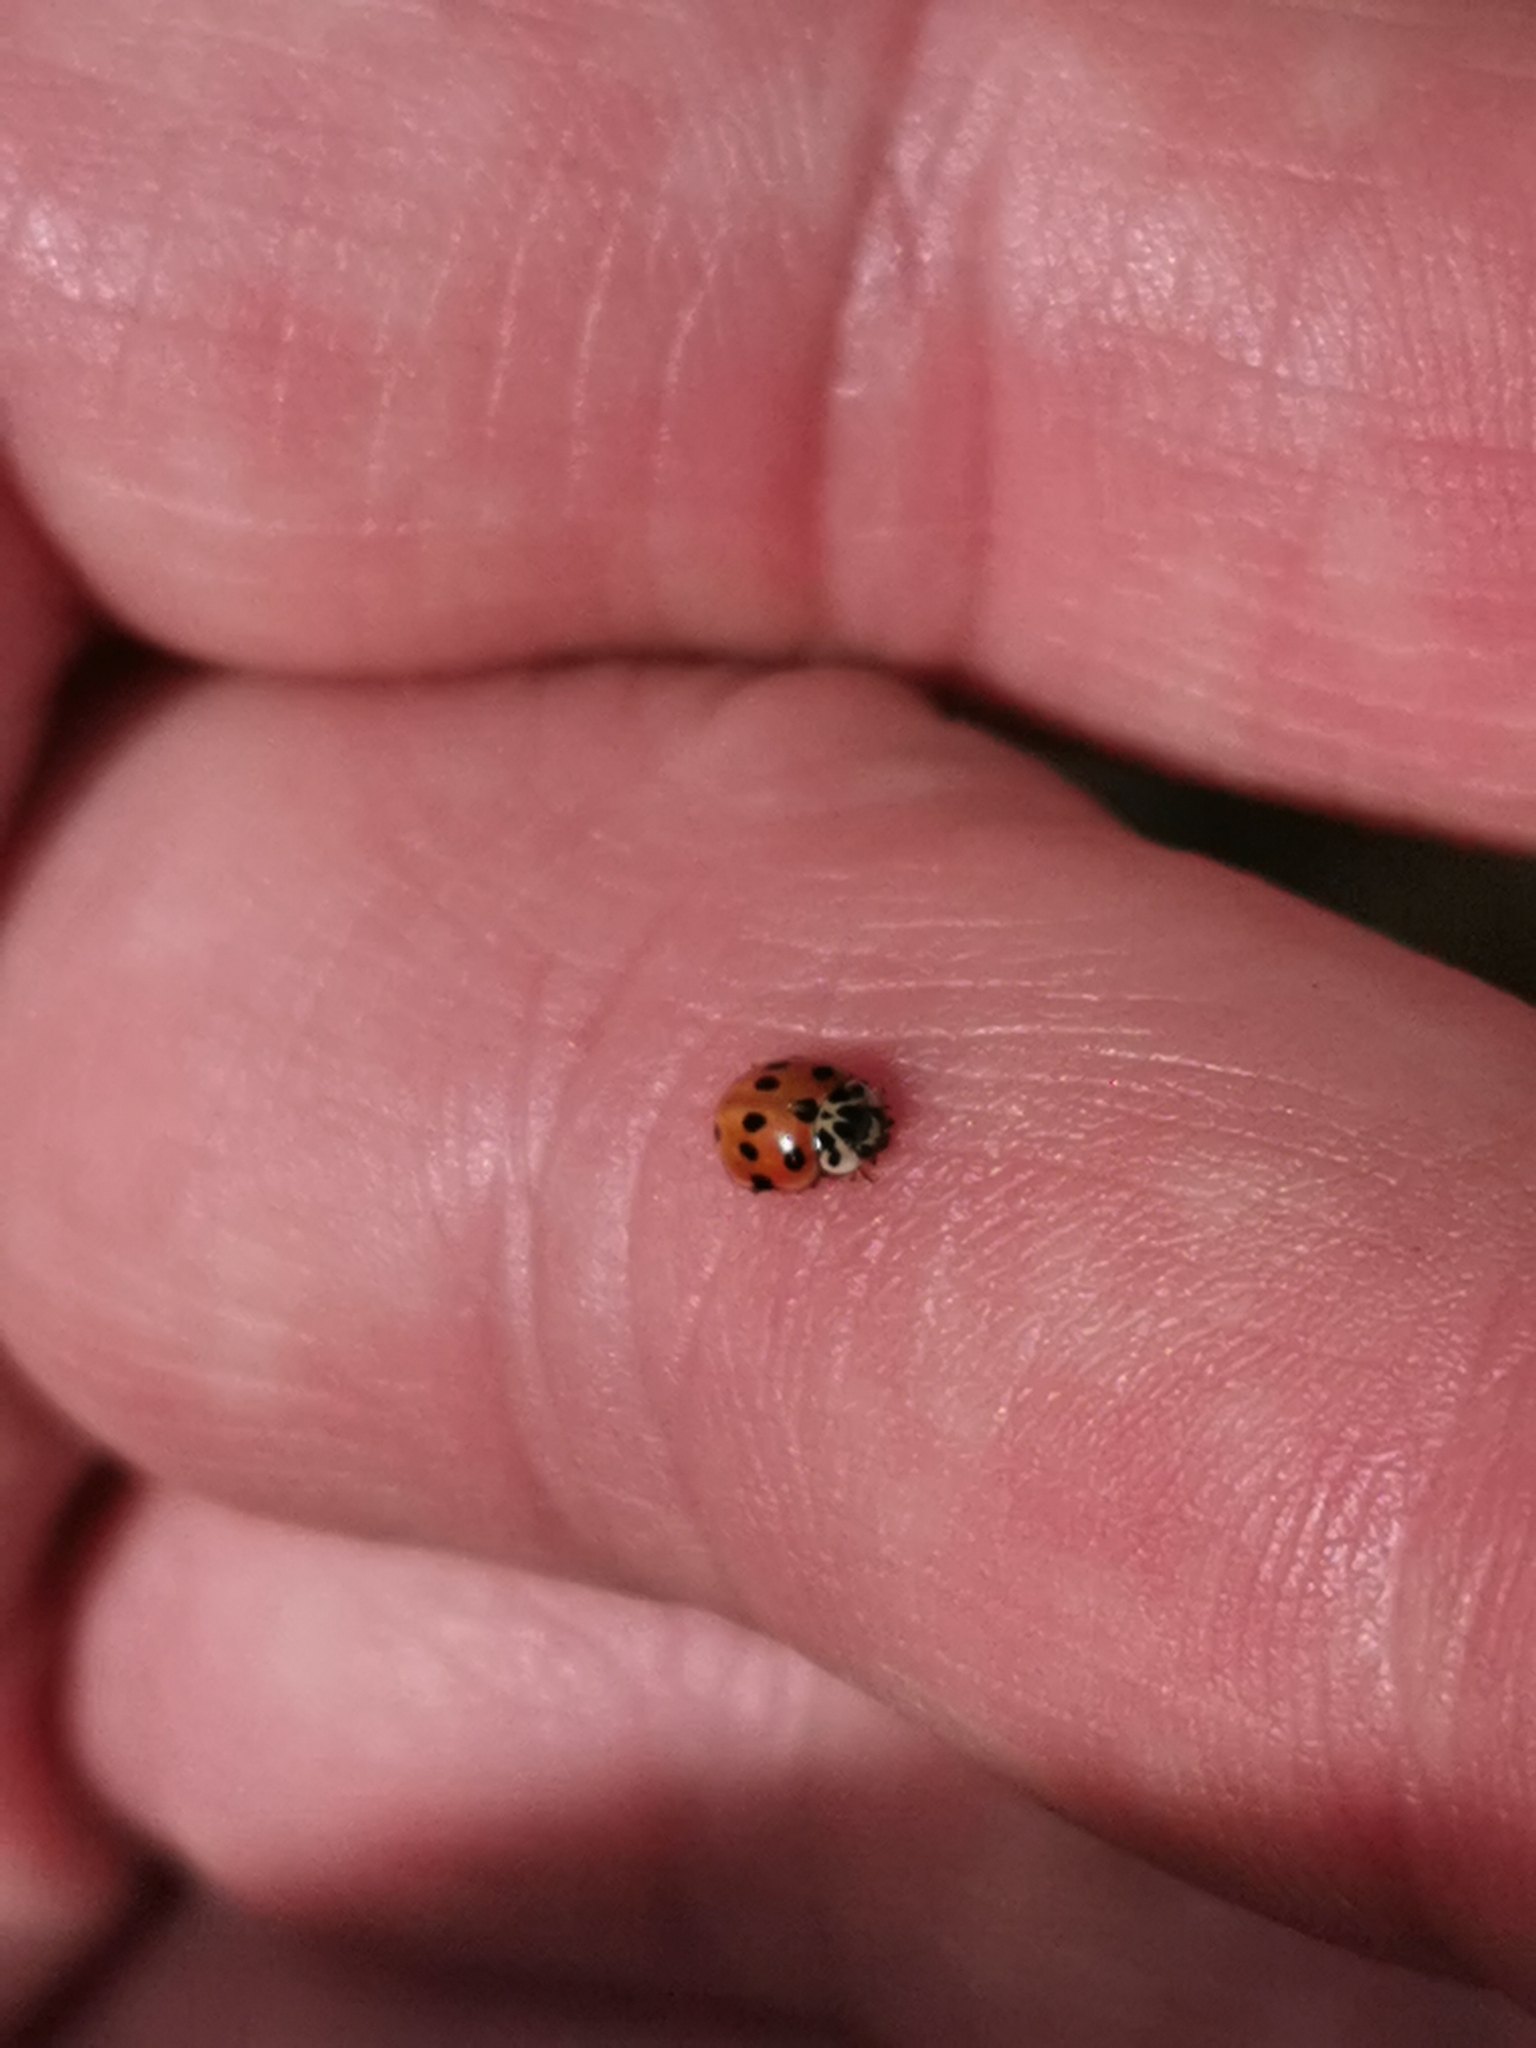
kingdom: Animalia
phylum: Arthropoda
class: Insecta
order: Coleoptera
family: Coccinellidae
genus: Adalia
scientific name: Adalia decempunctata
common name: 10-spot ladybird
